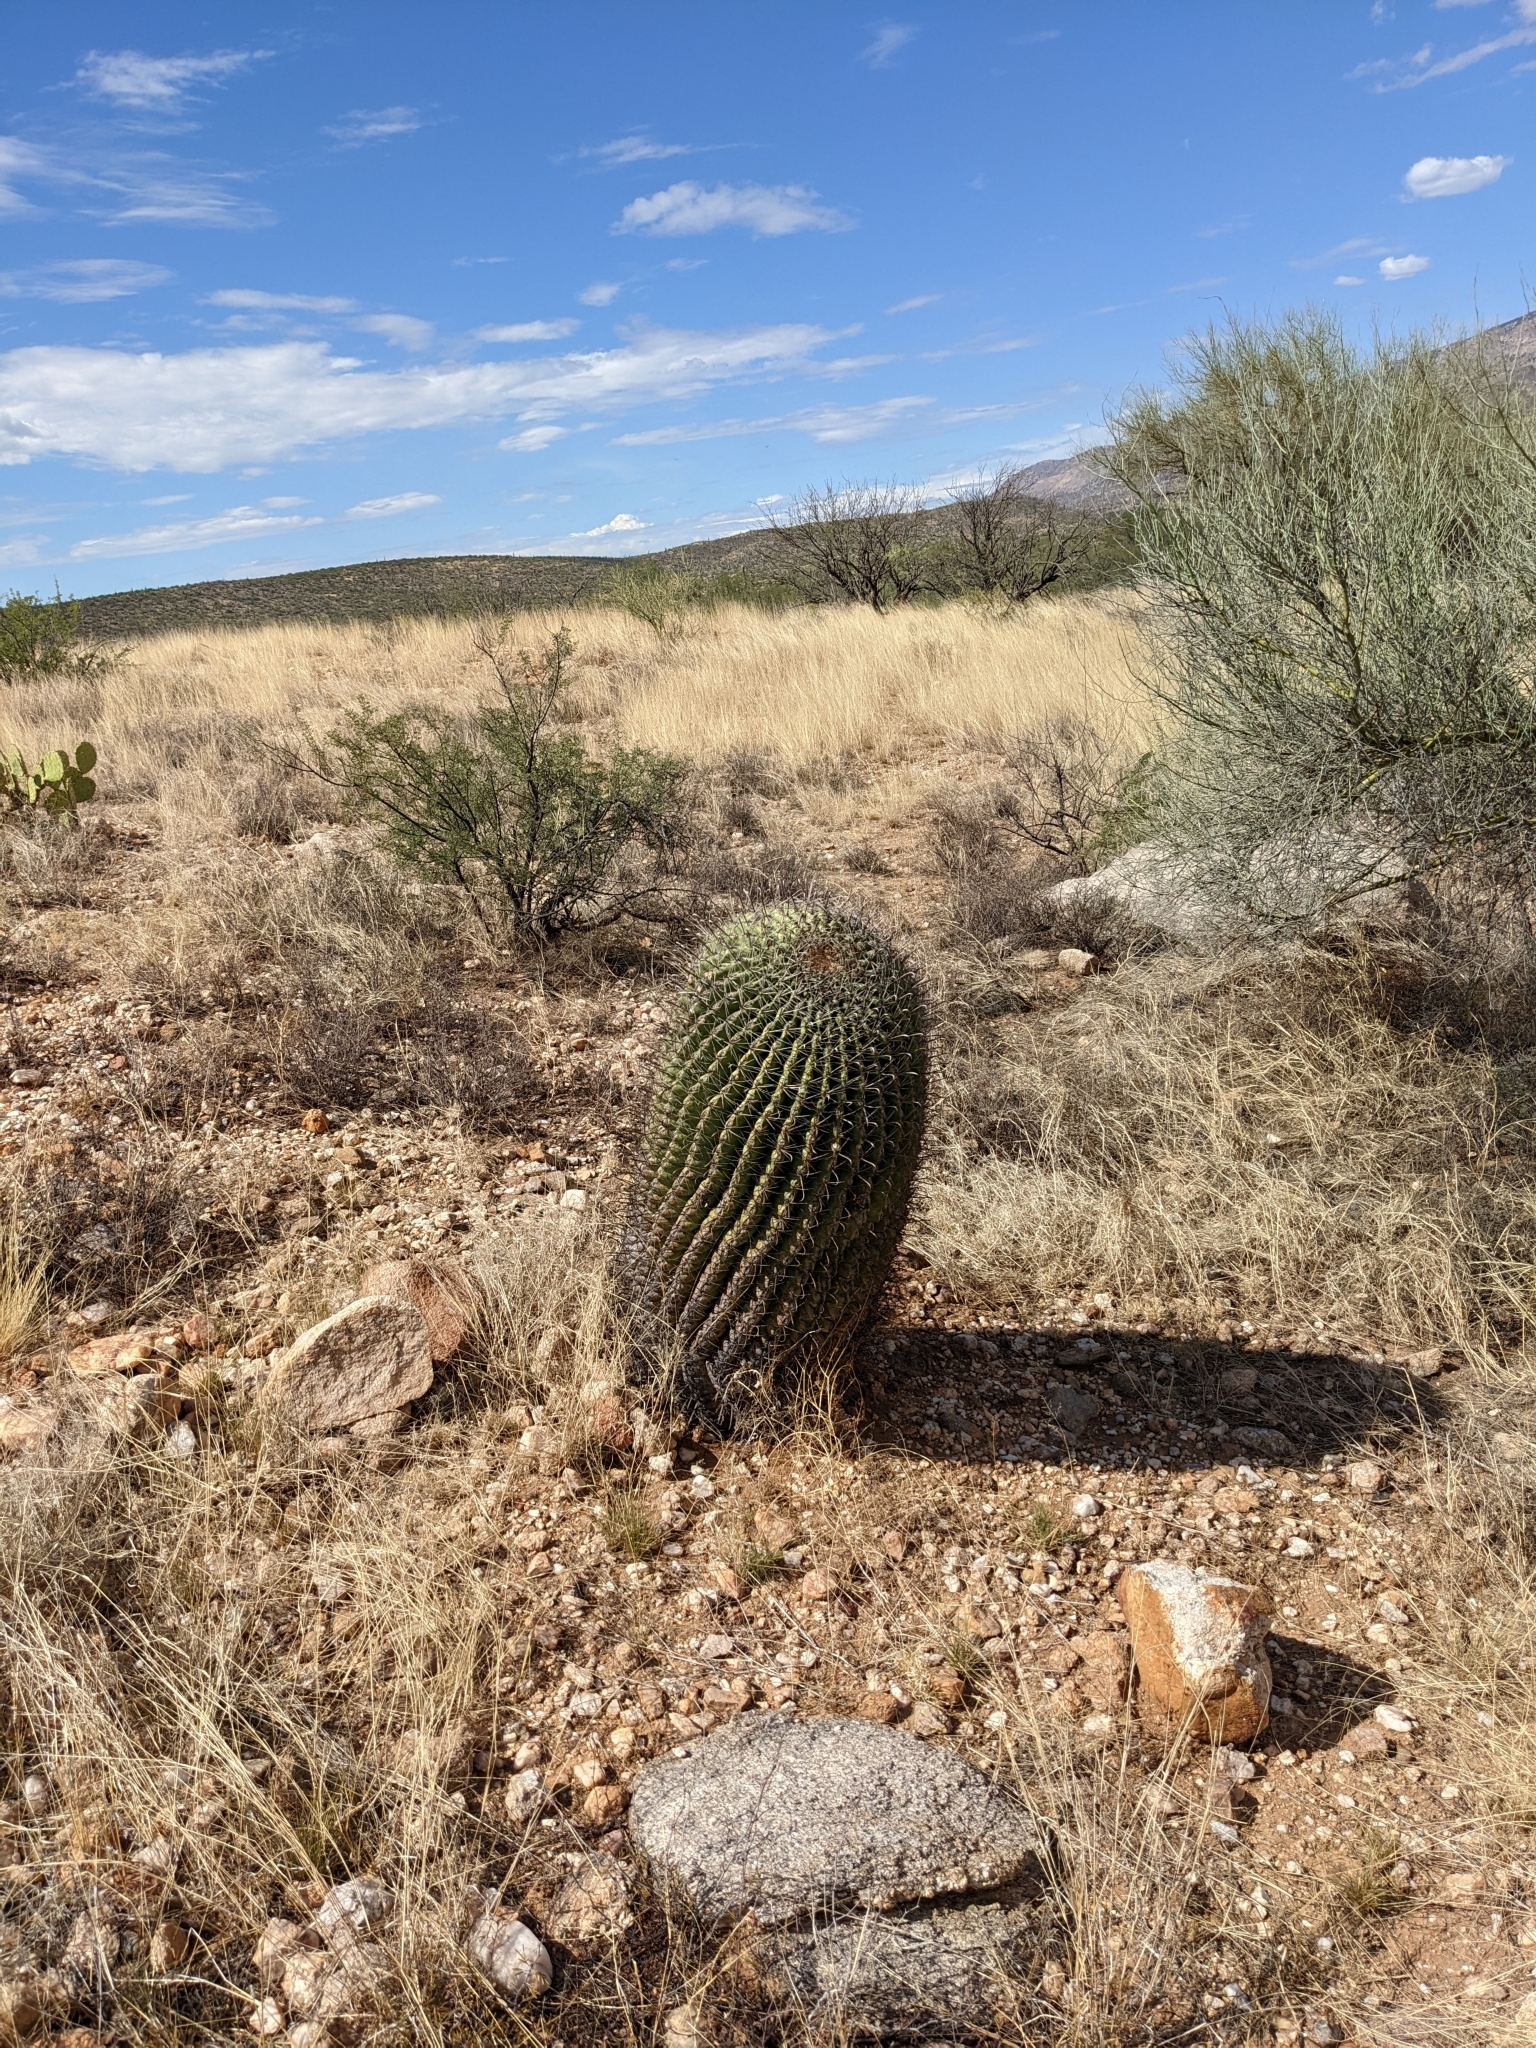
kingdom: Plantae
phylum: Tracheophyta
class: Magnoliopsida
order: Caryophyllales
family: Cactaceae
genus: Ferocactus
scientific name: Ferocactus wislizeni
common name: Candy barrel cactus
